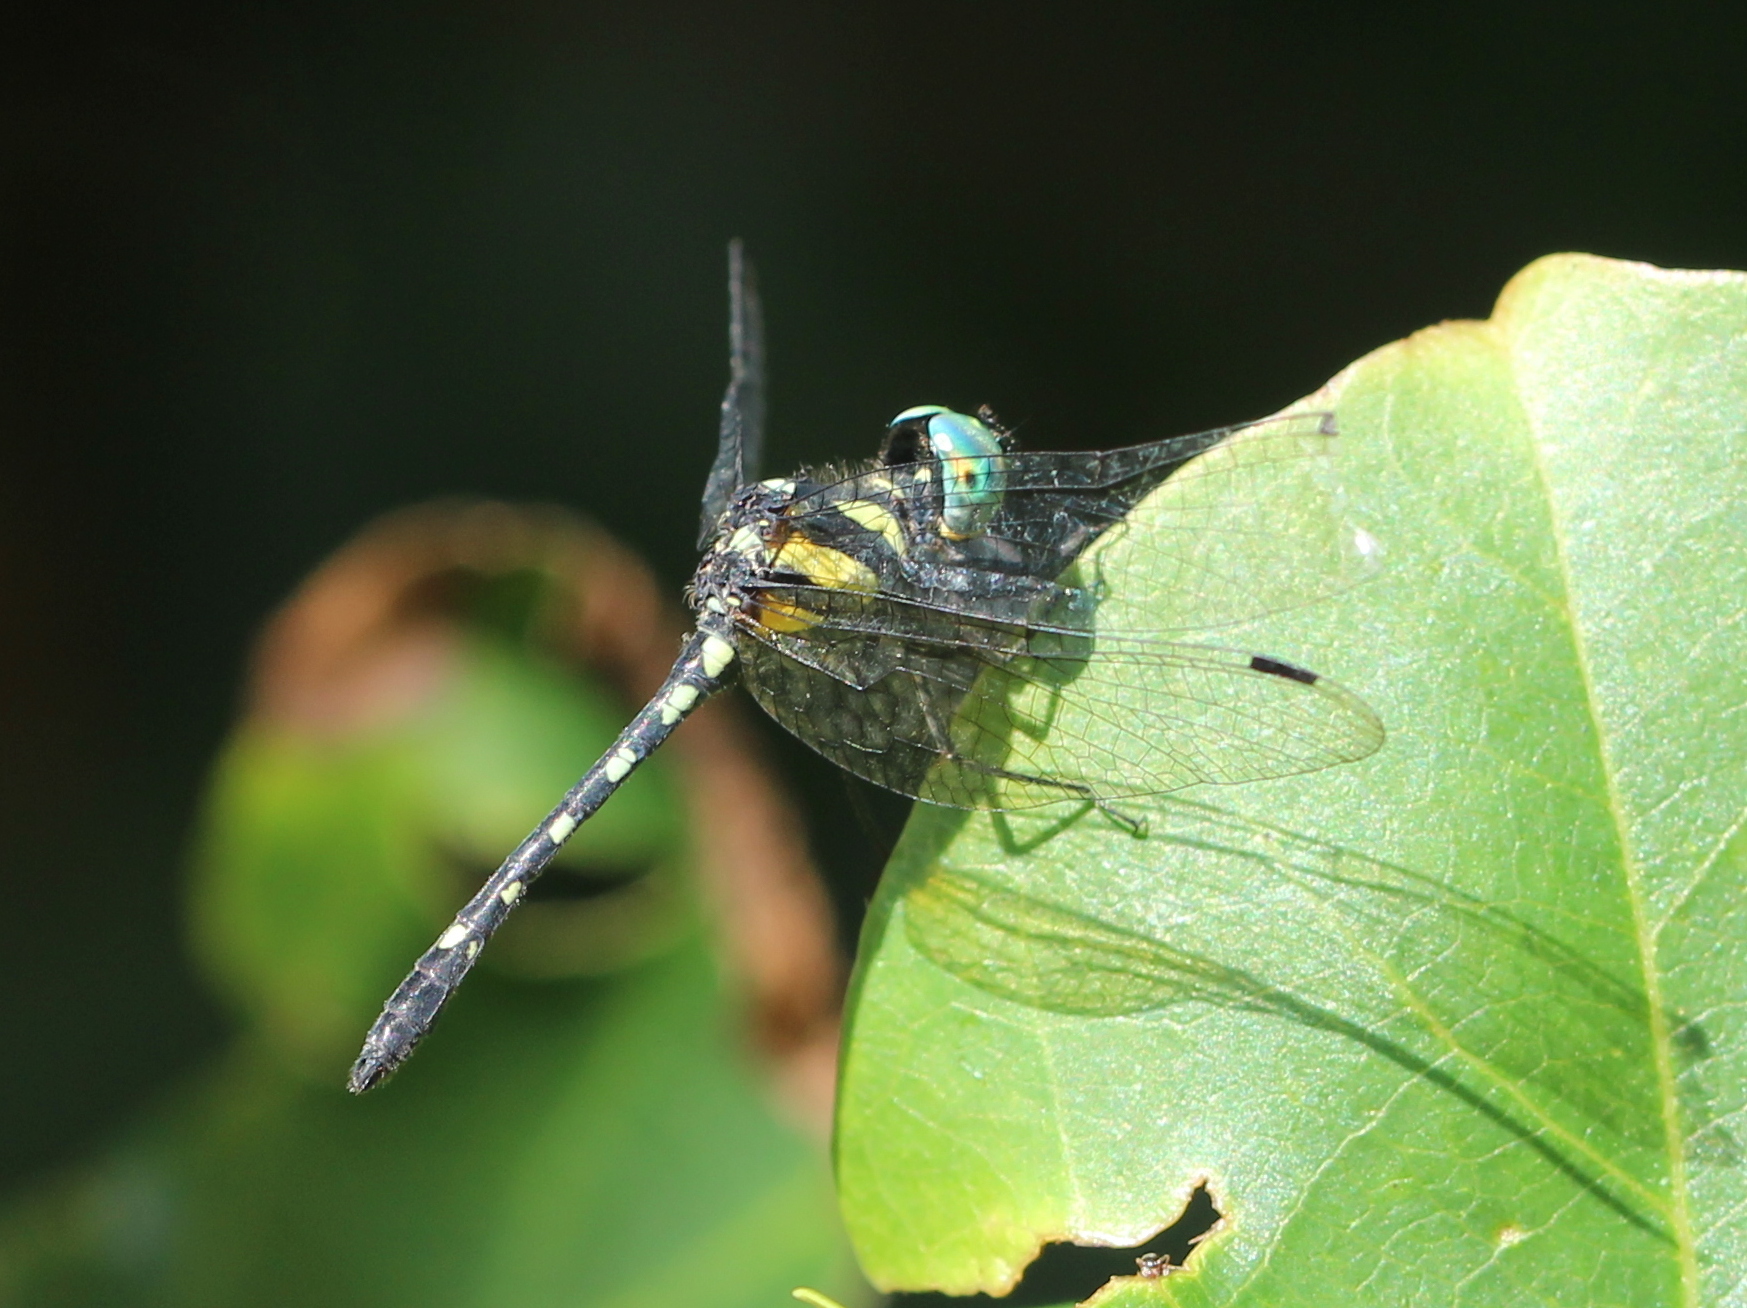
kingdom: Animalia
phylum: Arthropoda
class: Insecta
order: Odonata
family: Libellulidae
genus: Tetrathemis
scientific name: Tetrathemis platyptera
